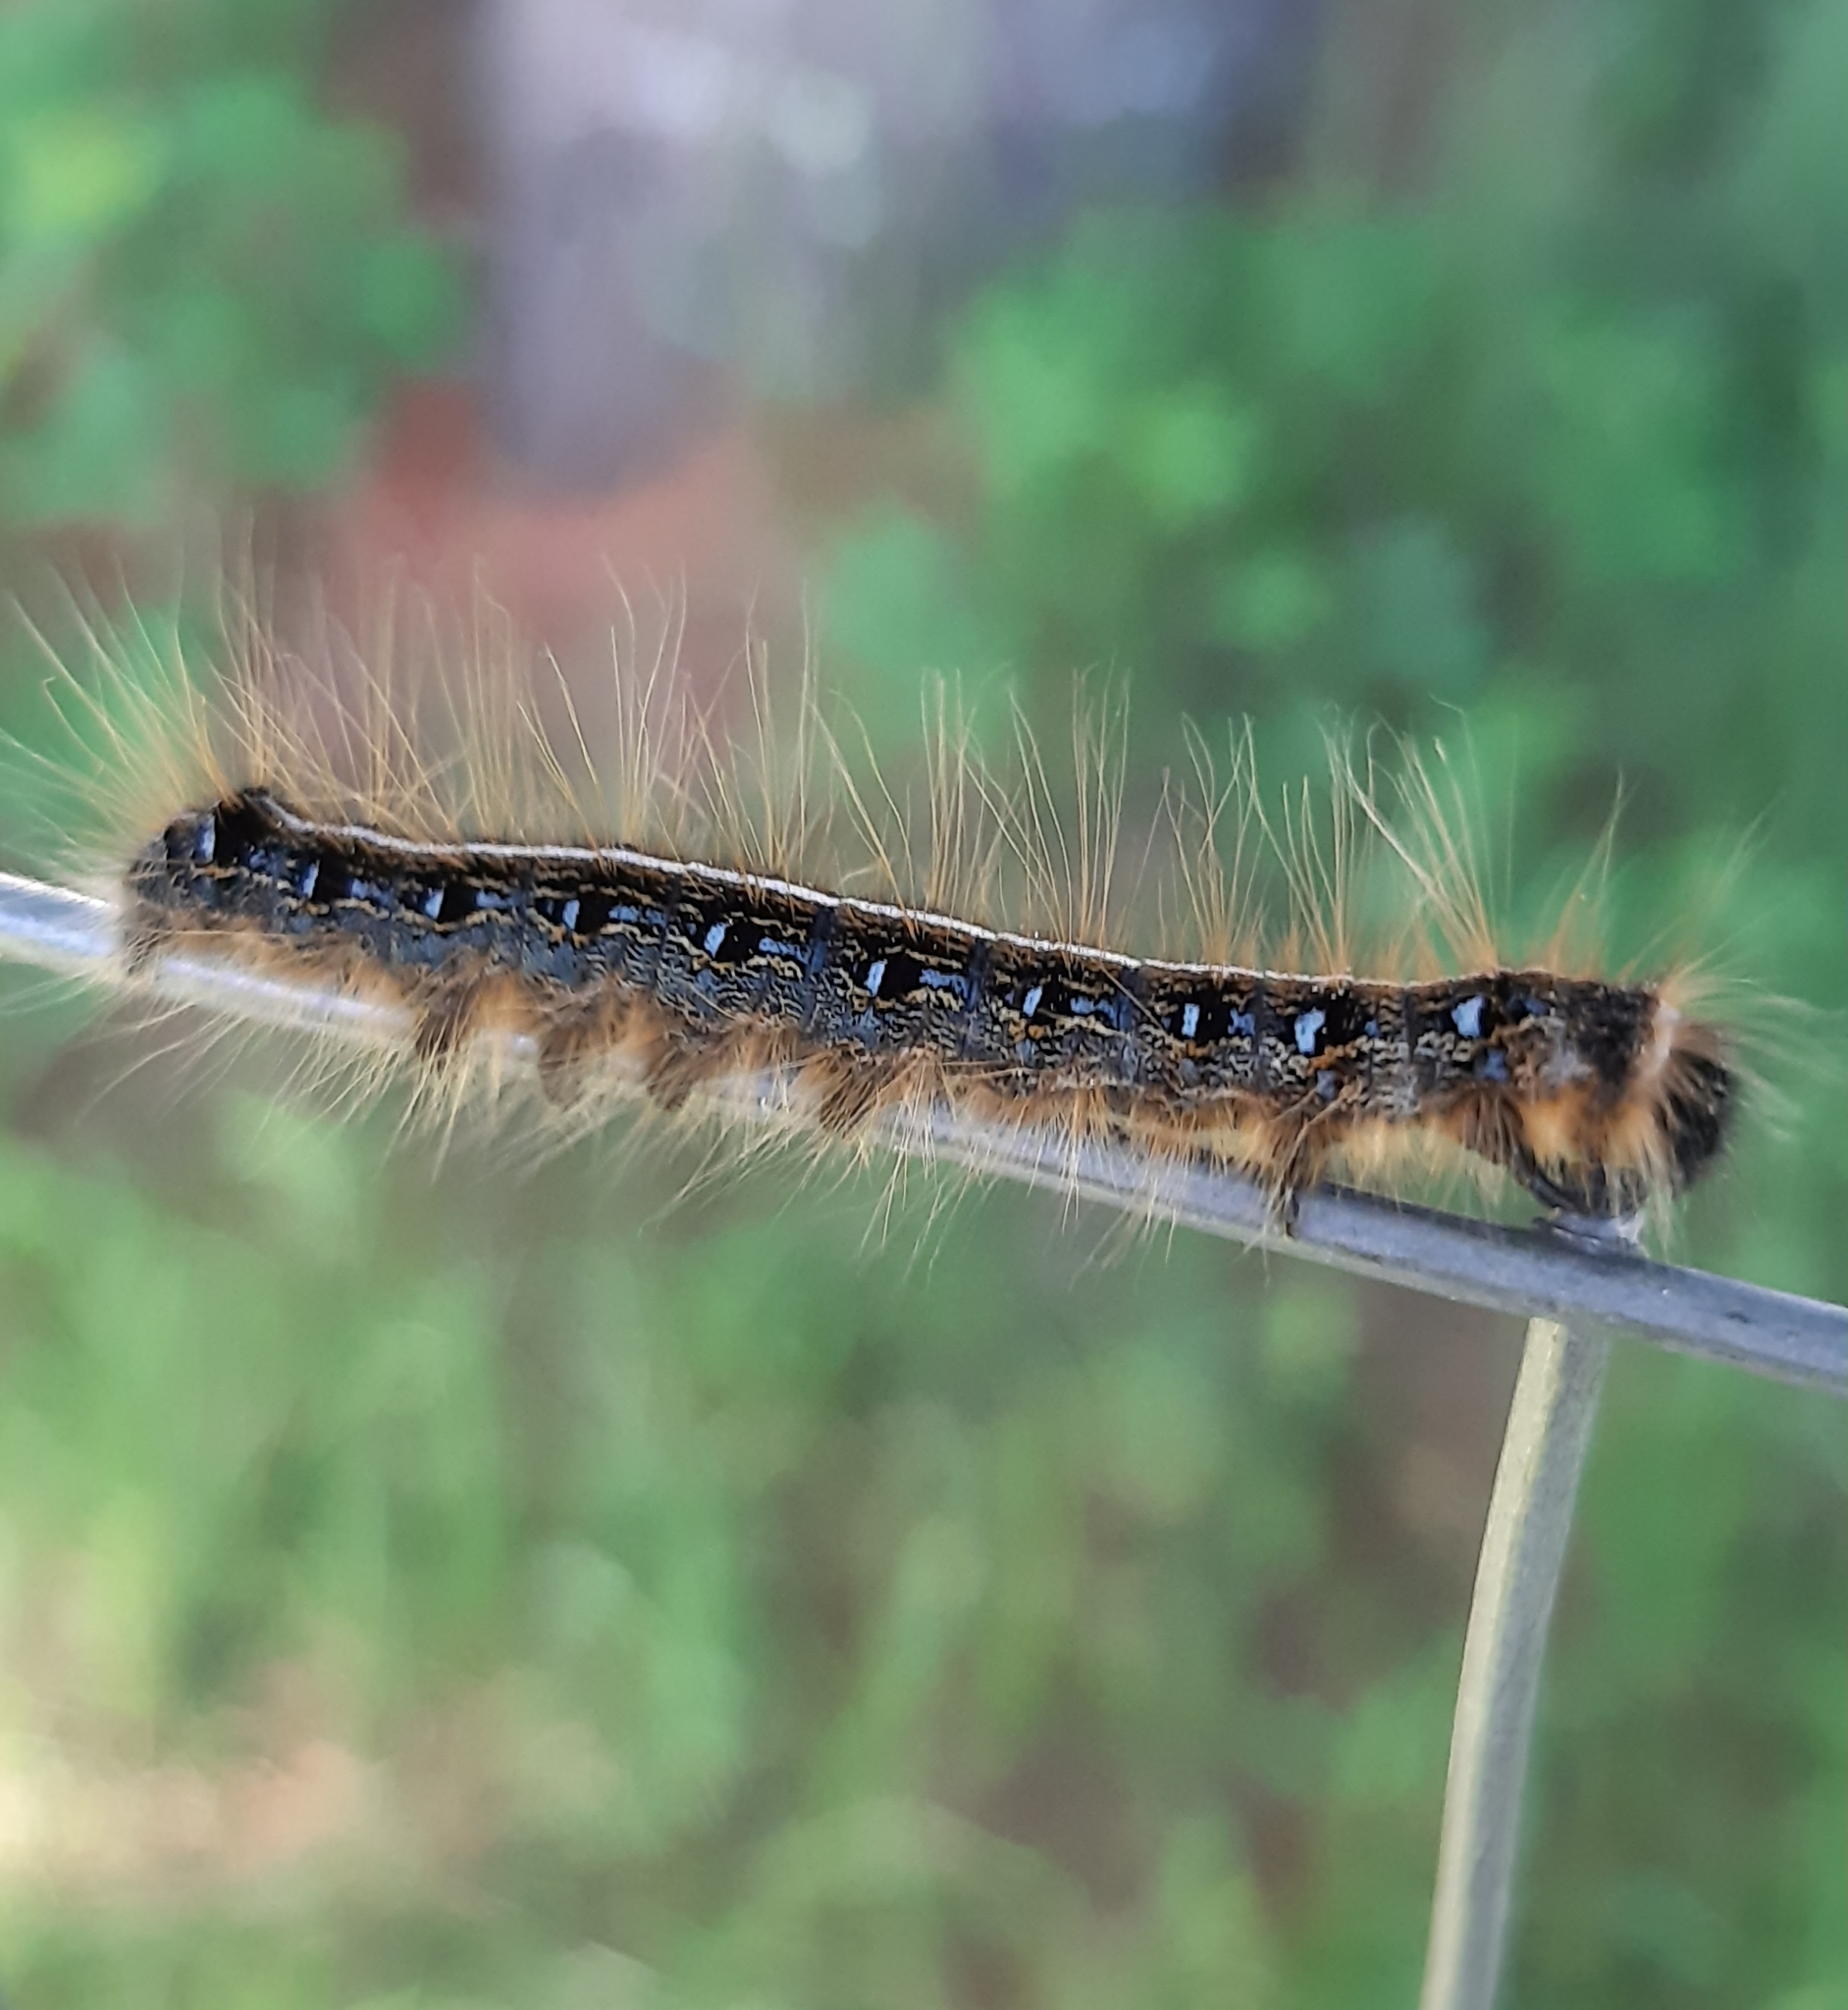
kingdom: Animalia
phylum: Arthropoda
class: Insecta
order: Lepidoptera
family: Lasiocampidae
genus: Malacosoma
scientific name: Malacosoma americana
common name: Eastern tent caterpillar moth
